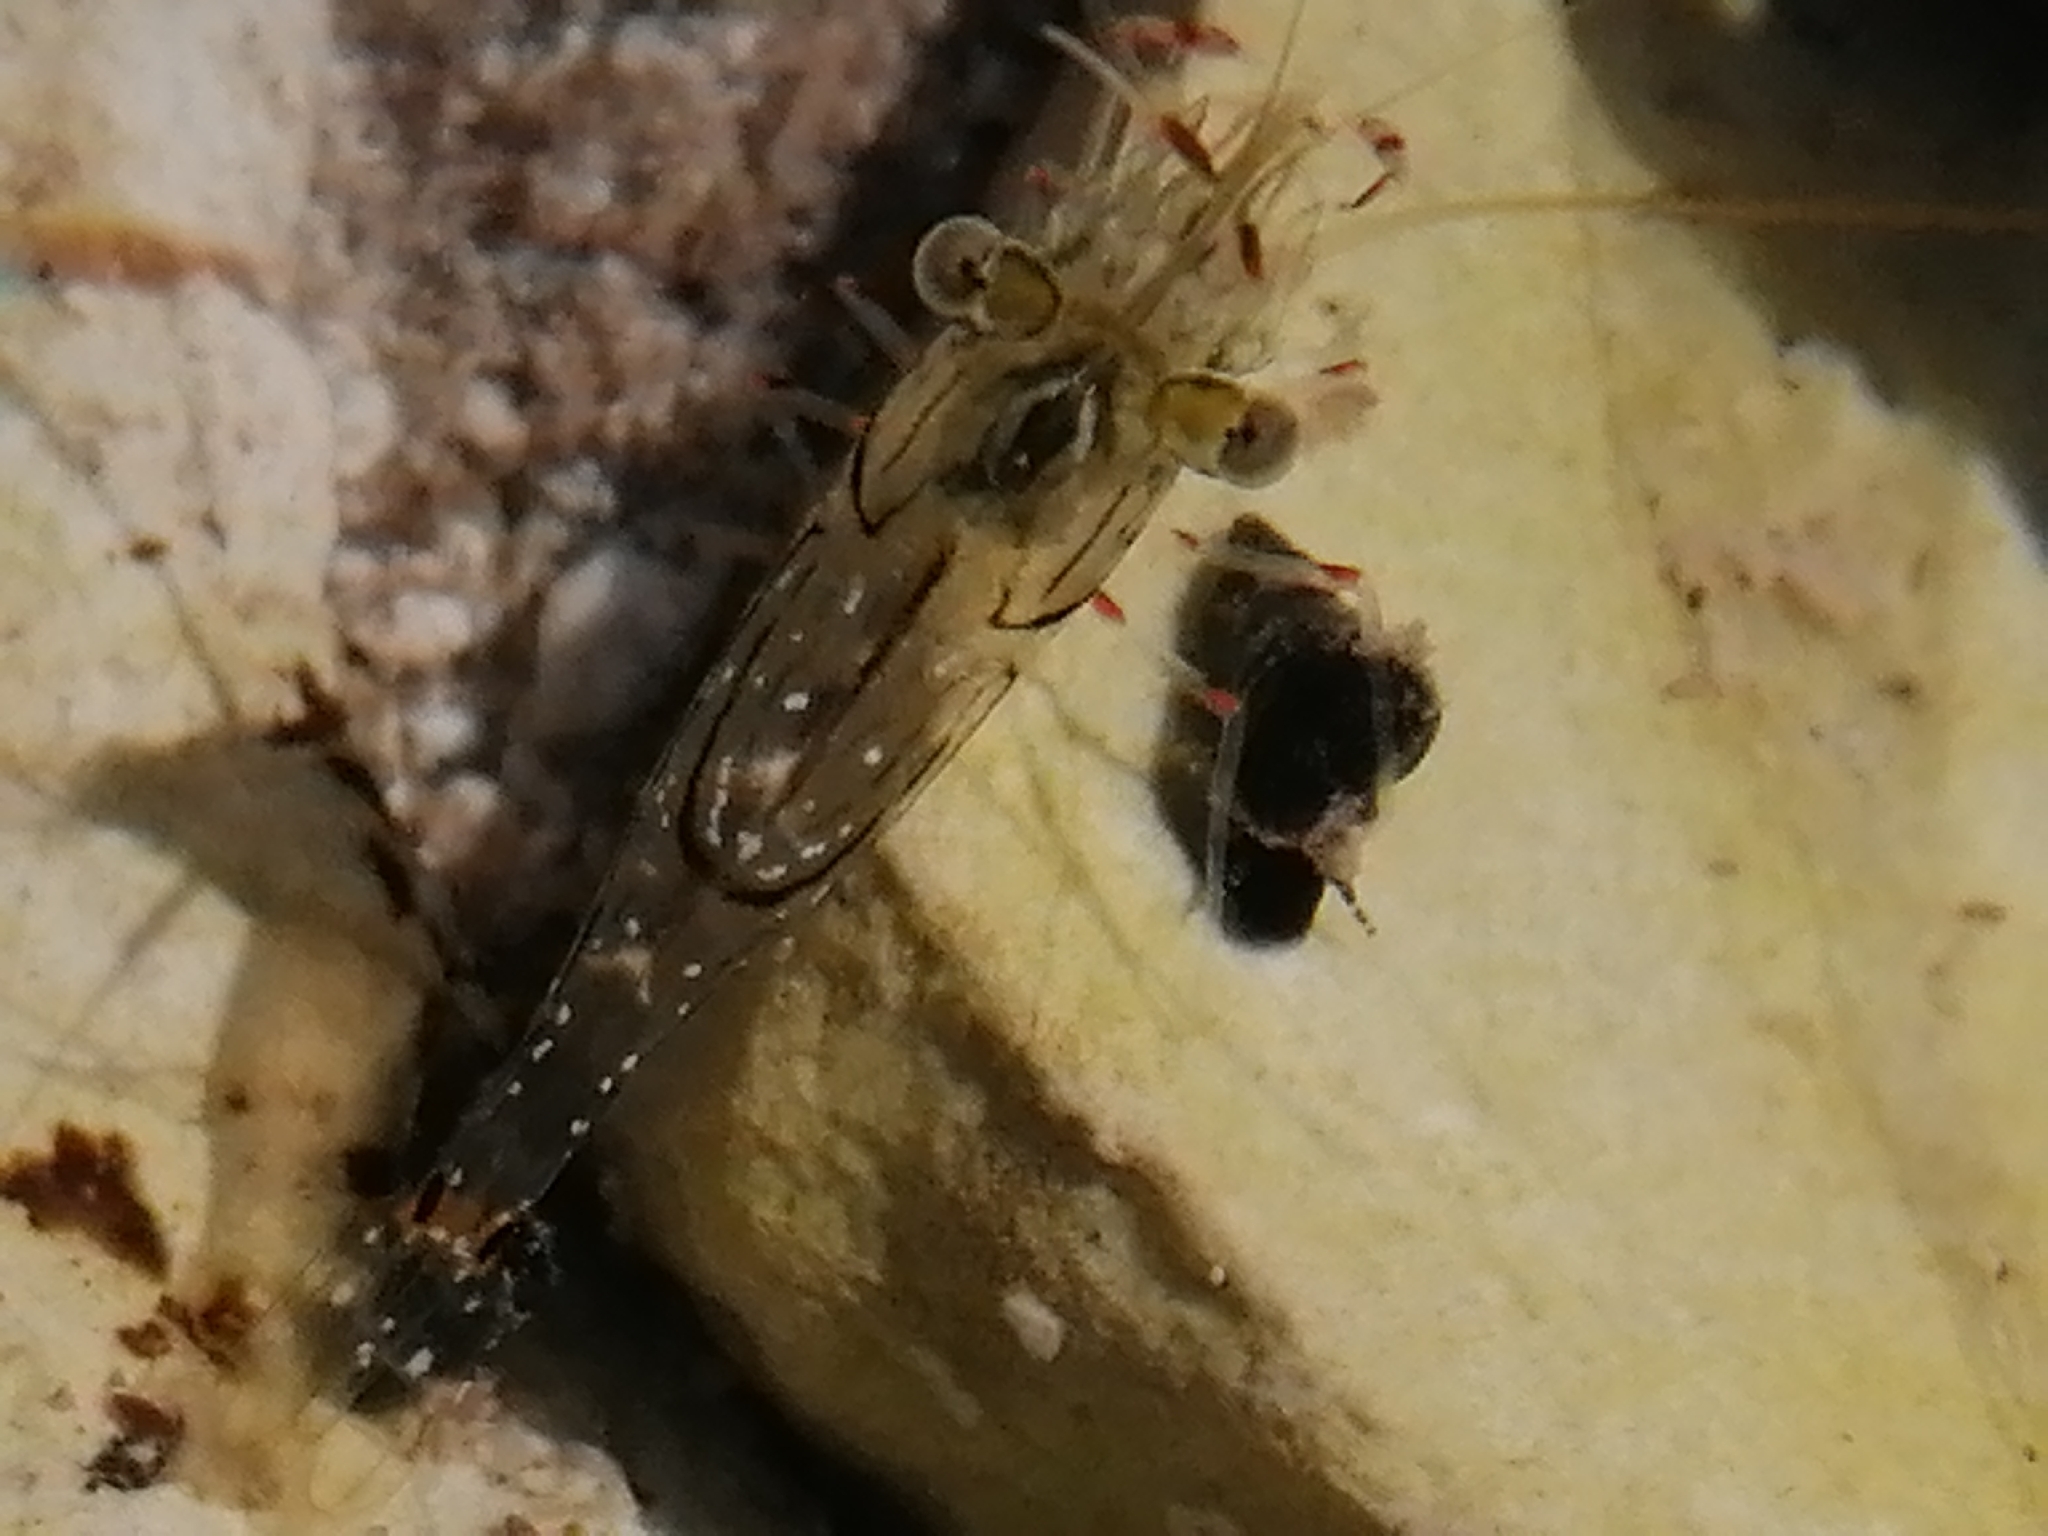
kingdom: Animalia
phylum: Arthropoda
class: Malacostraca
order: Decapoda
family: Palaemonidae
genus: Palaemon
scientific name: Palaemon affinis
